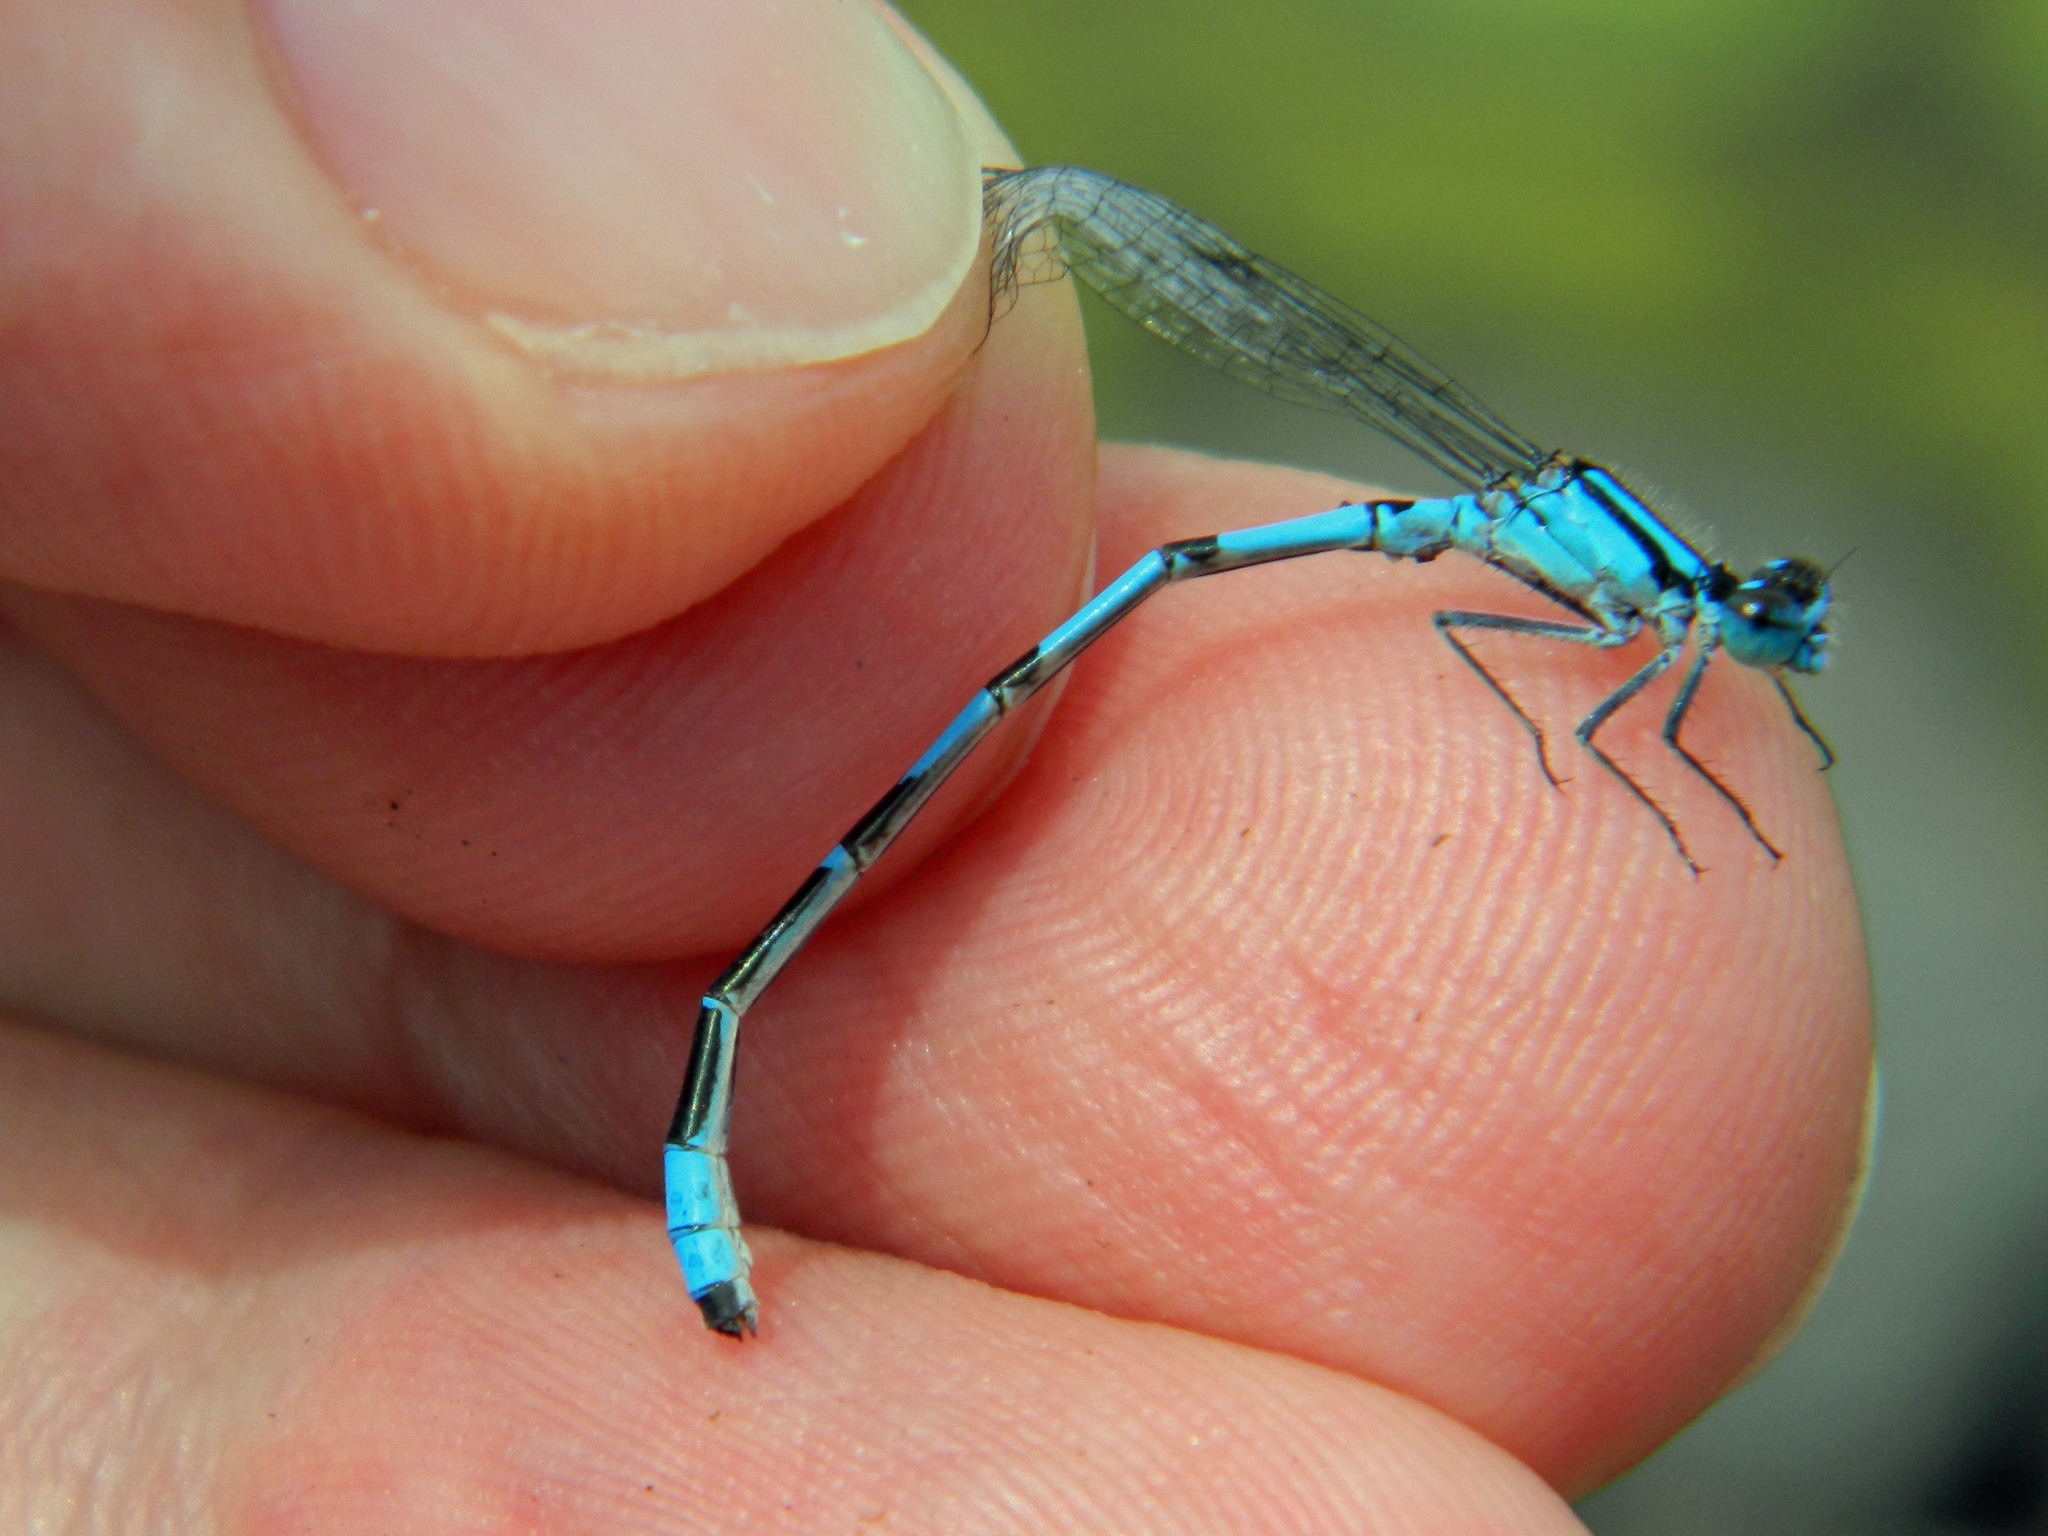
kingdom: Animalia
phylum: Arthropoda
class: Insecta
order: Odonata
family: Coenagrionidae
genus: Enallagma
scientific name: Enallagma hageni
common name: Hagen's bluet
